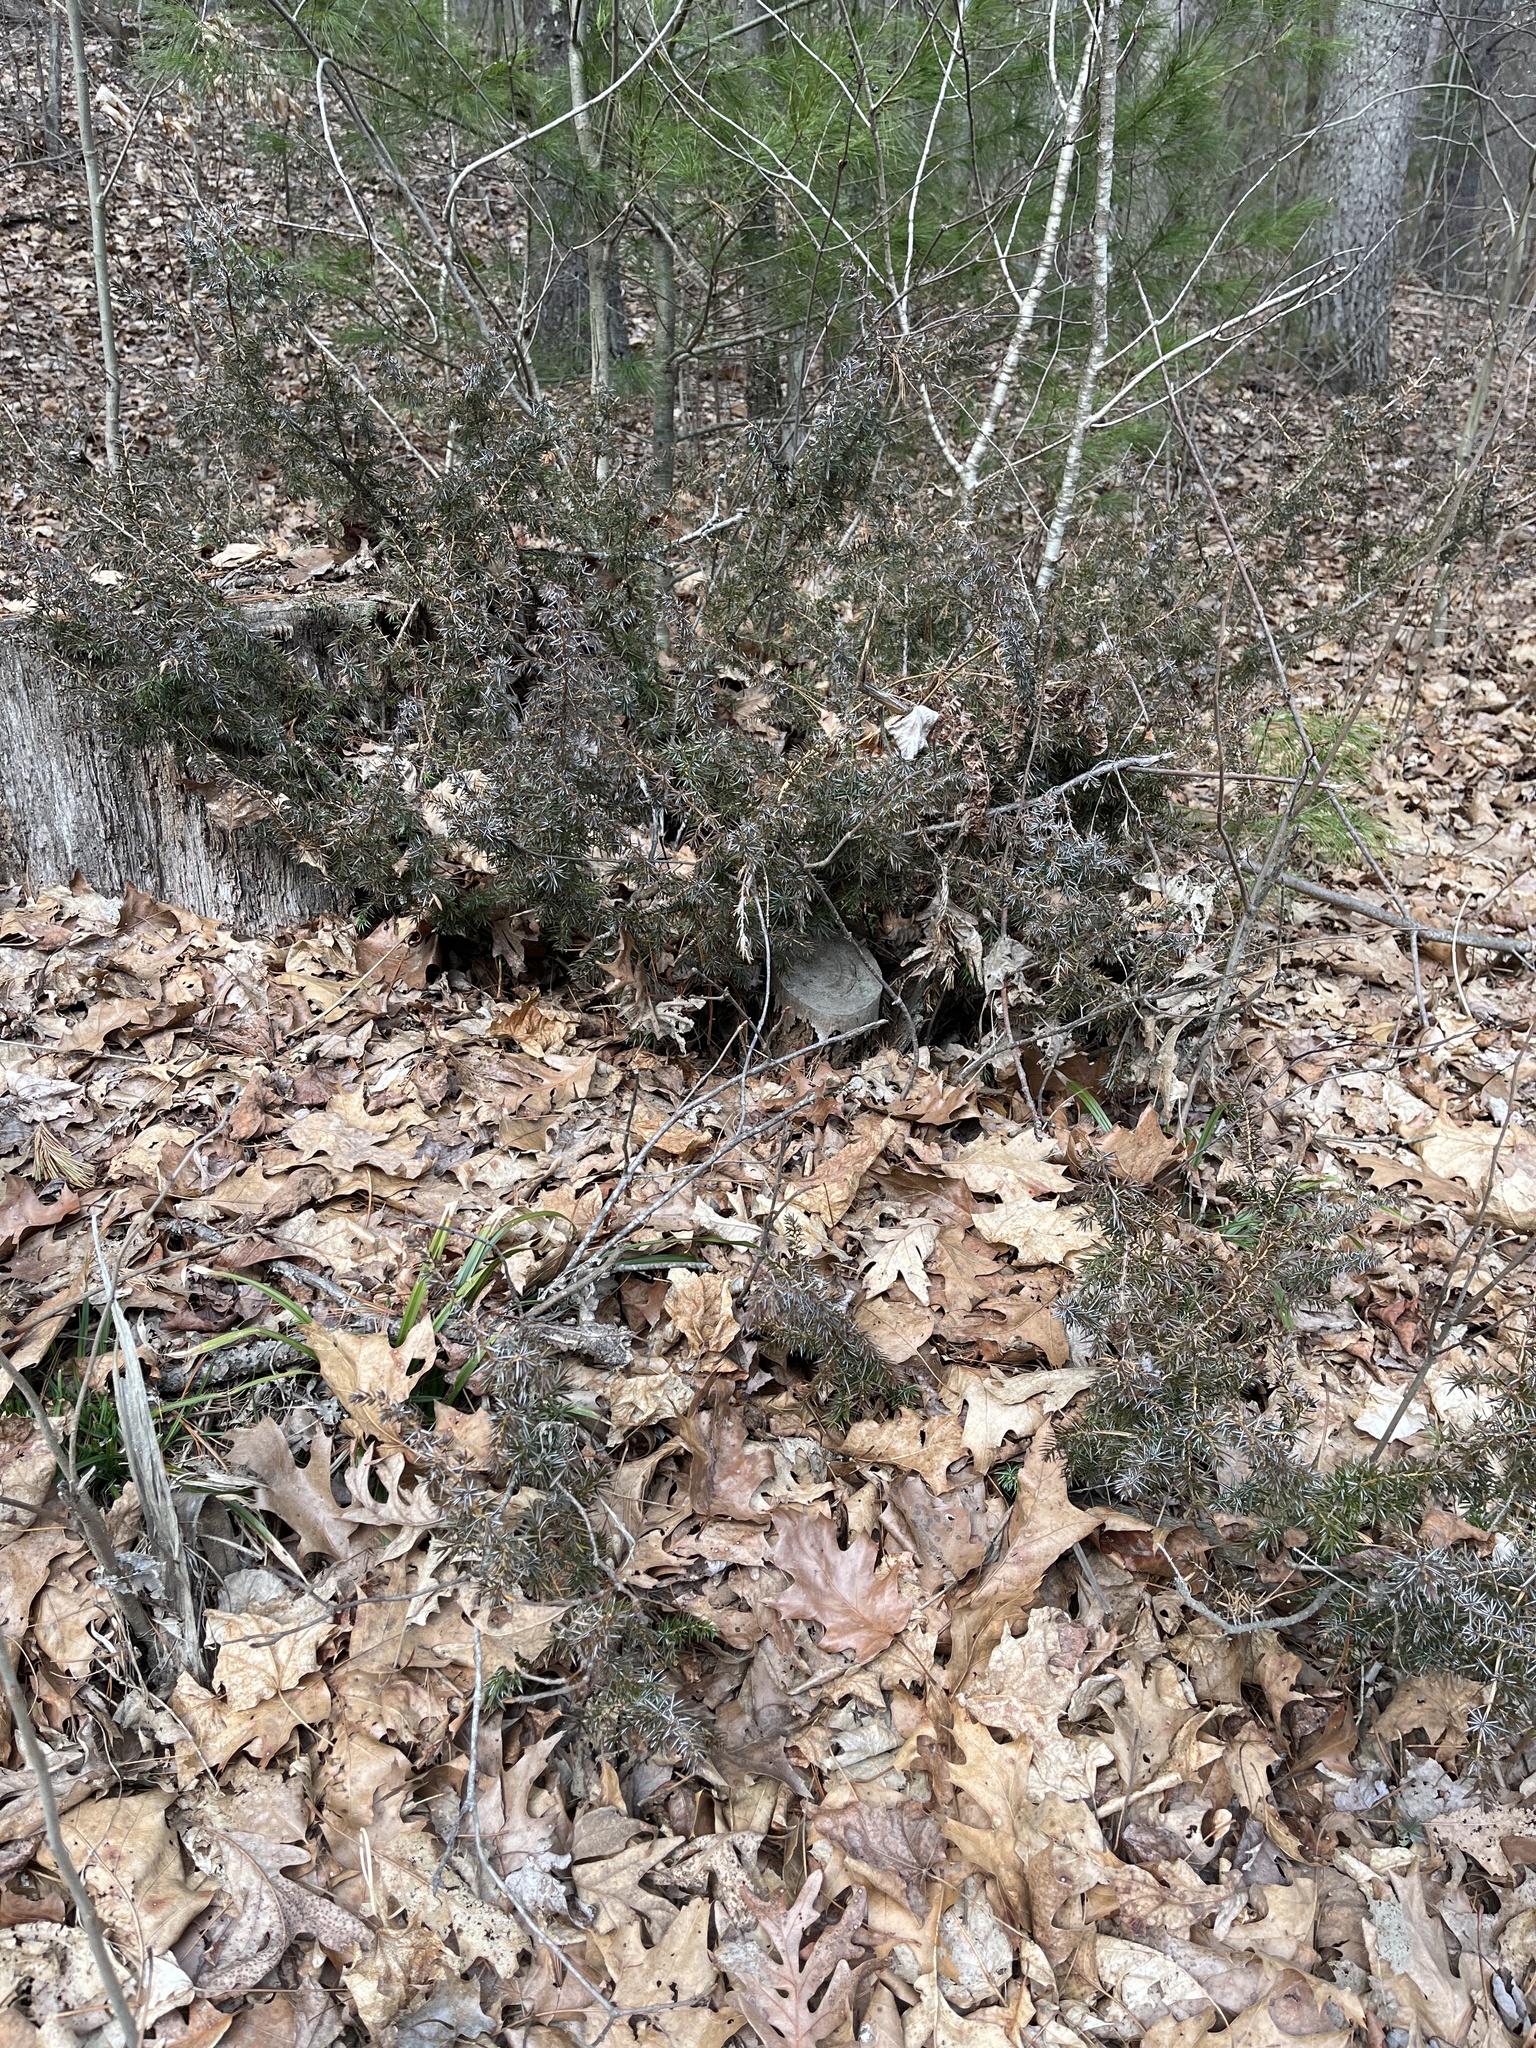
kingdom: Plantae
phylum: Tracheophyta
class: Pinopsida
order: Pinales
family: Cupressaceae
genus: Juniperus
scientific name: Juniperus communis
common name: Common juniper
